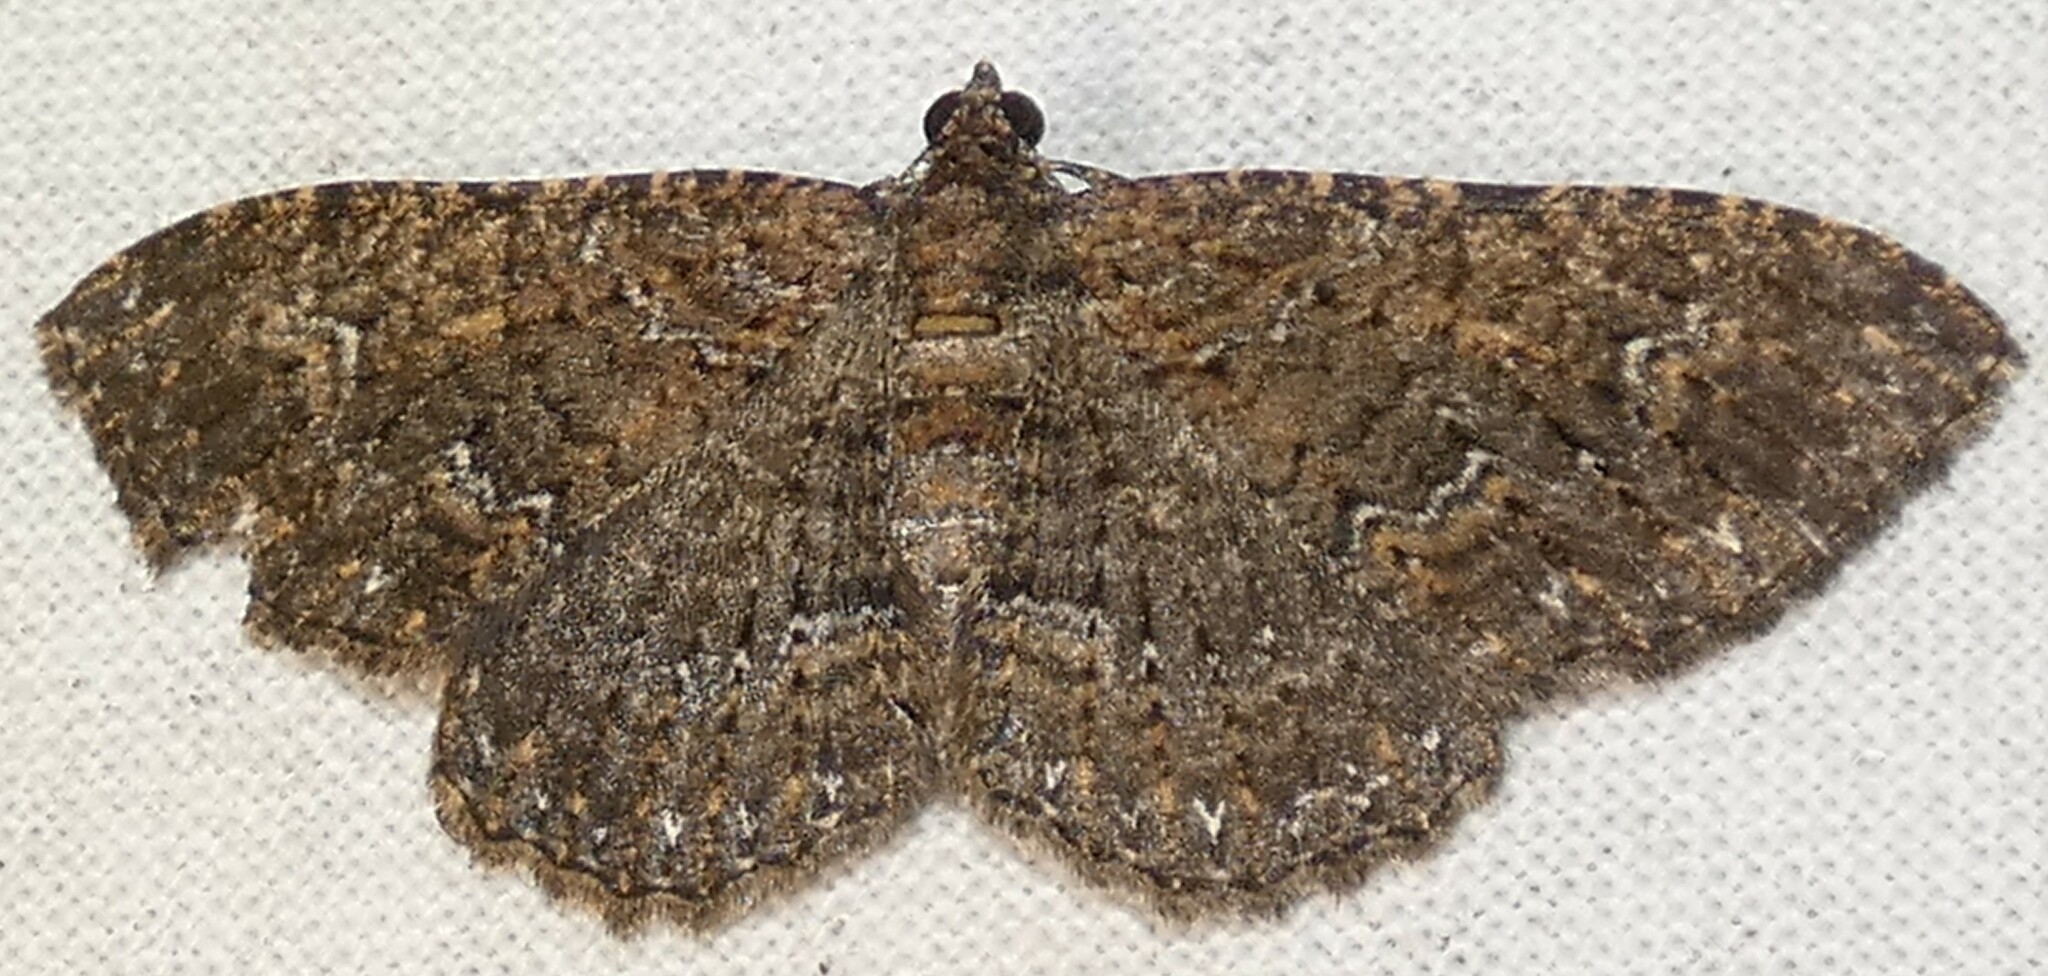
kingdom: Animalia
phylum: Arthropoda
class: Insecta
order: Lepidoptera
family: Geometridae
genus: Disclisioprocta
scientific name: Disclisioprocta stellata
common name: Somber carpet
